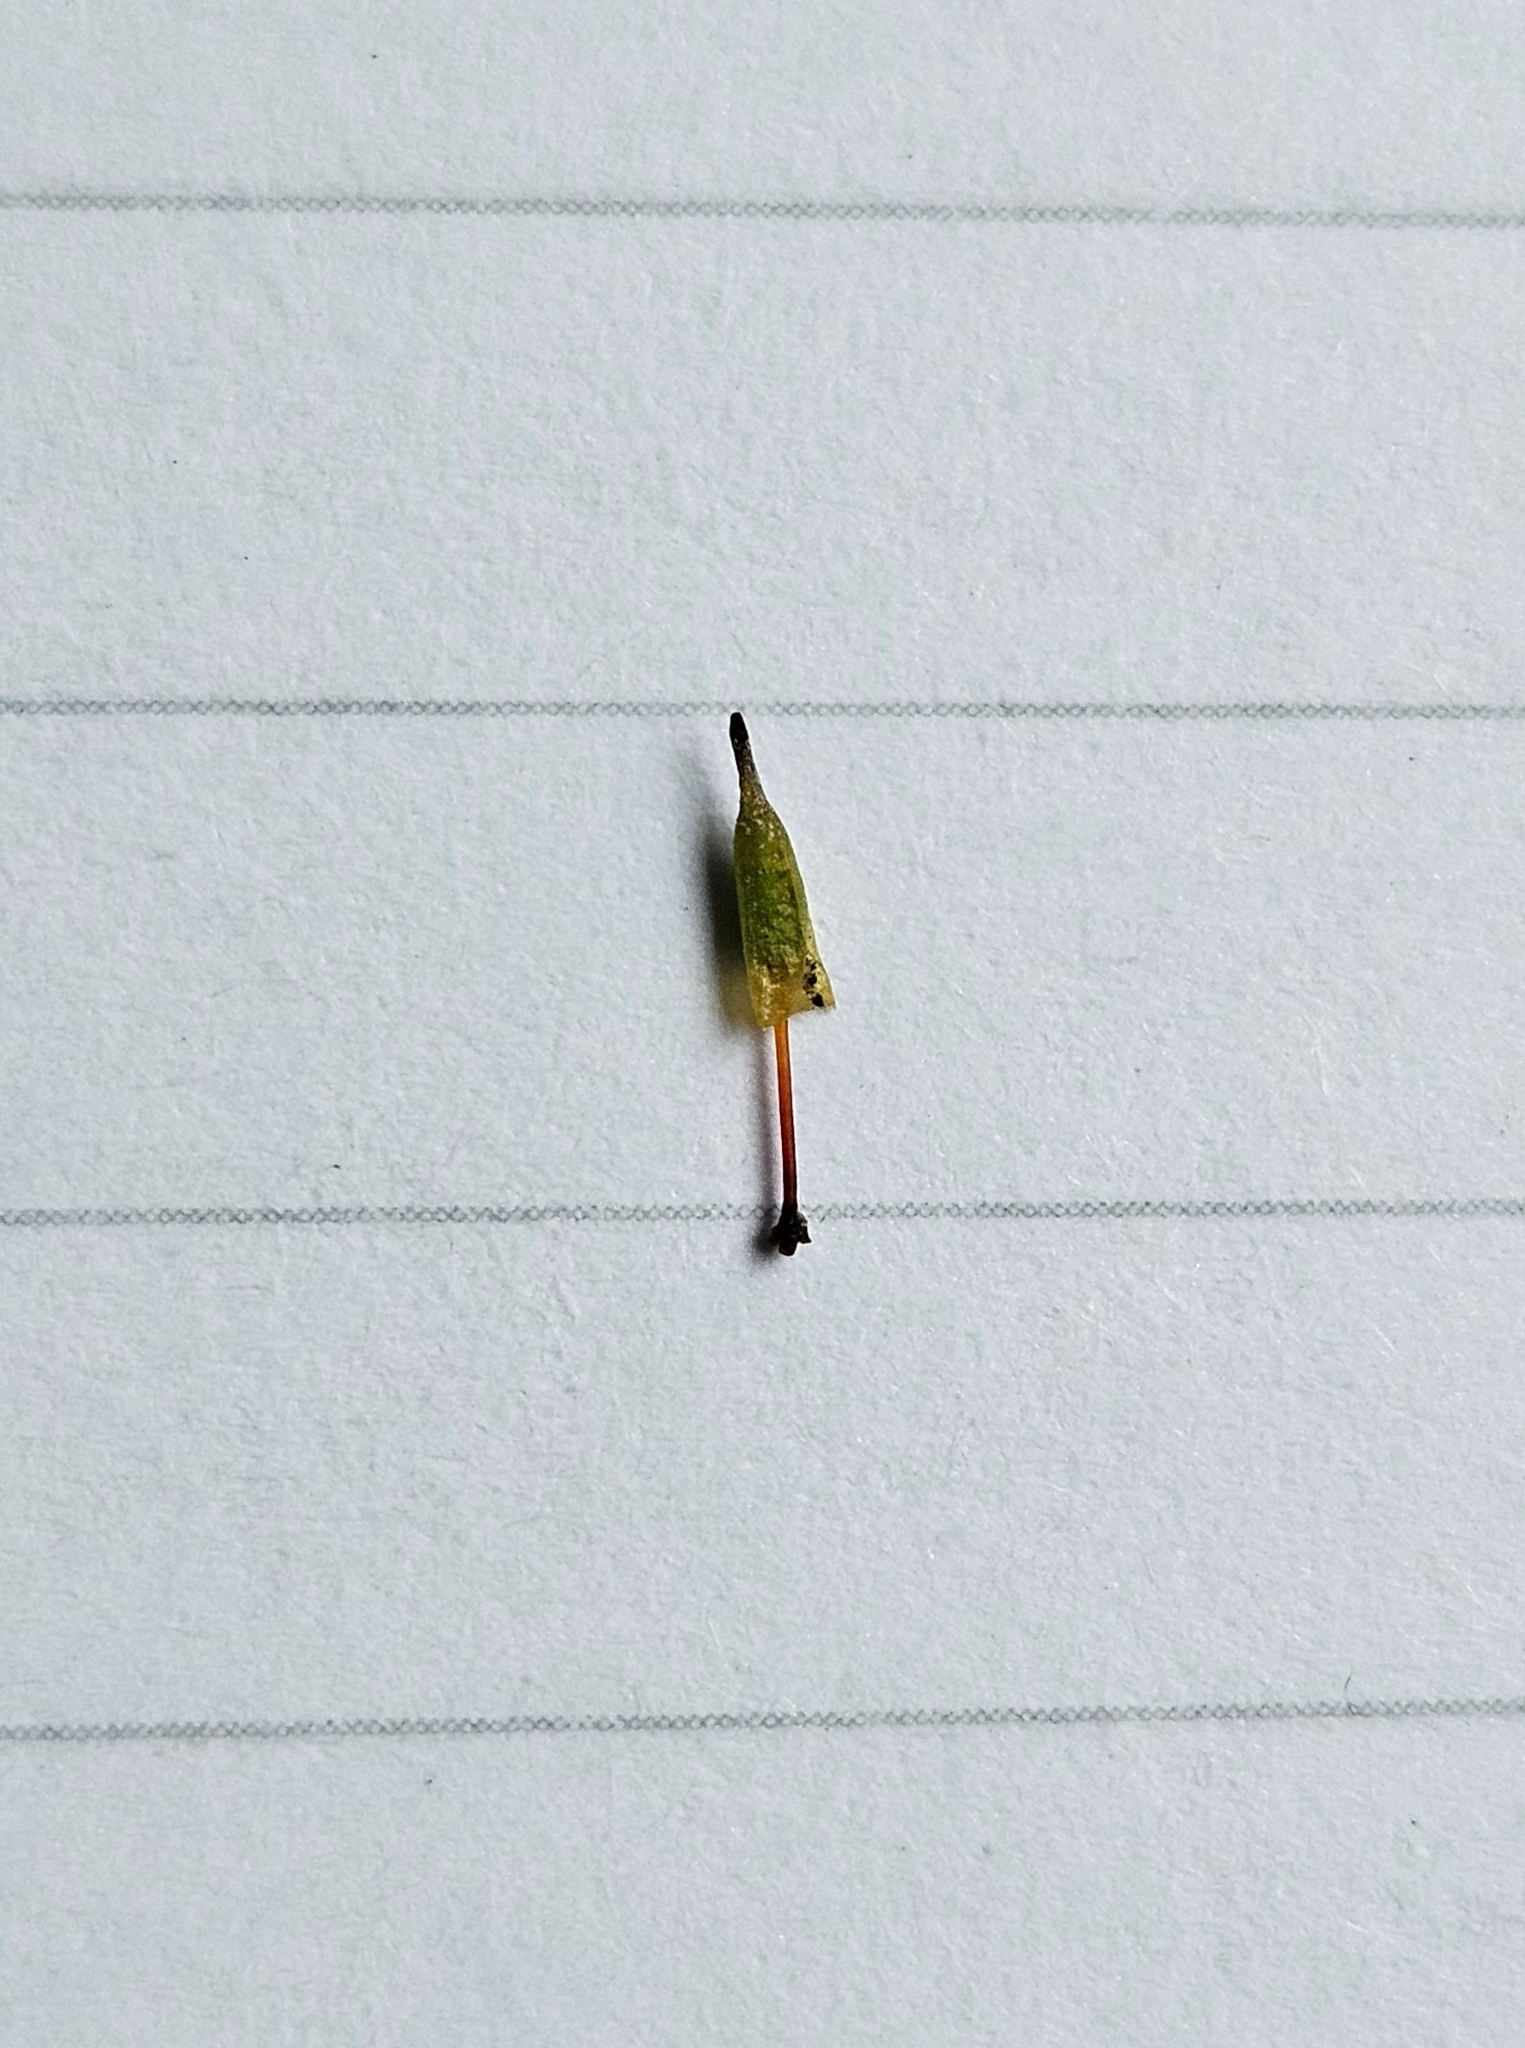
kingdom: Plantae
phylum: Bryophyta
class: Bryopsida
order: Encalyptales
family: Encalyptaceae
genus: Encalypta
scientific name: Encalypta pilifera
